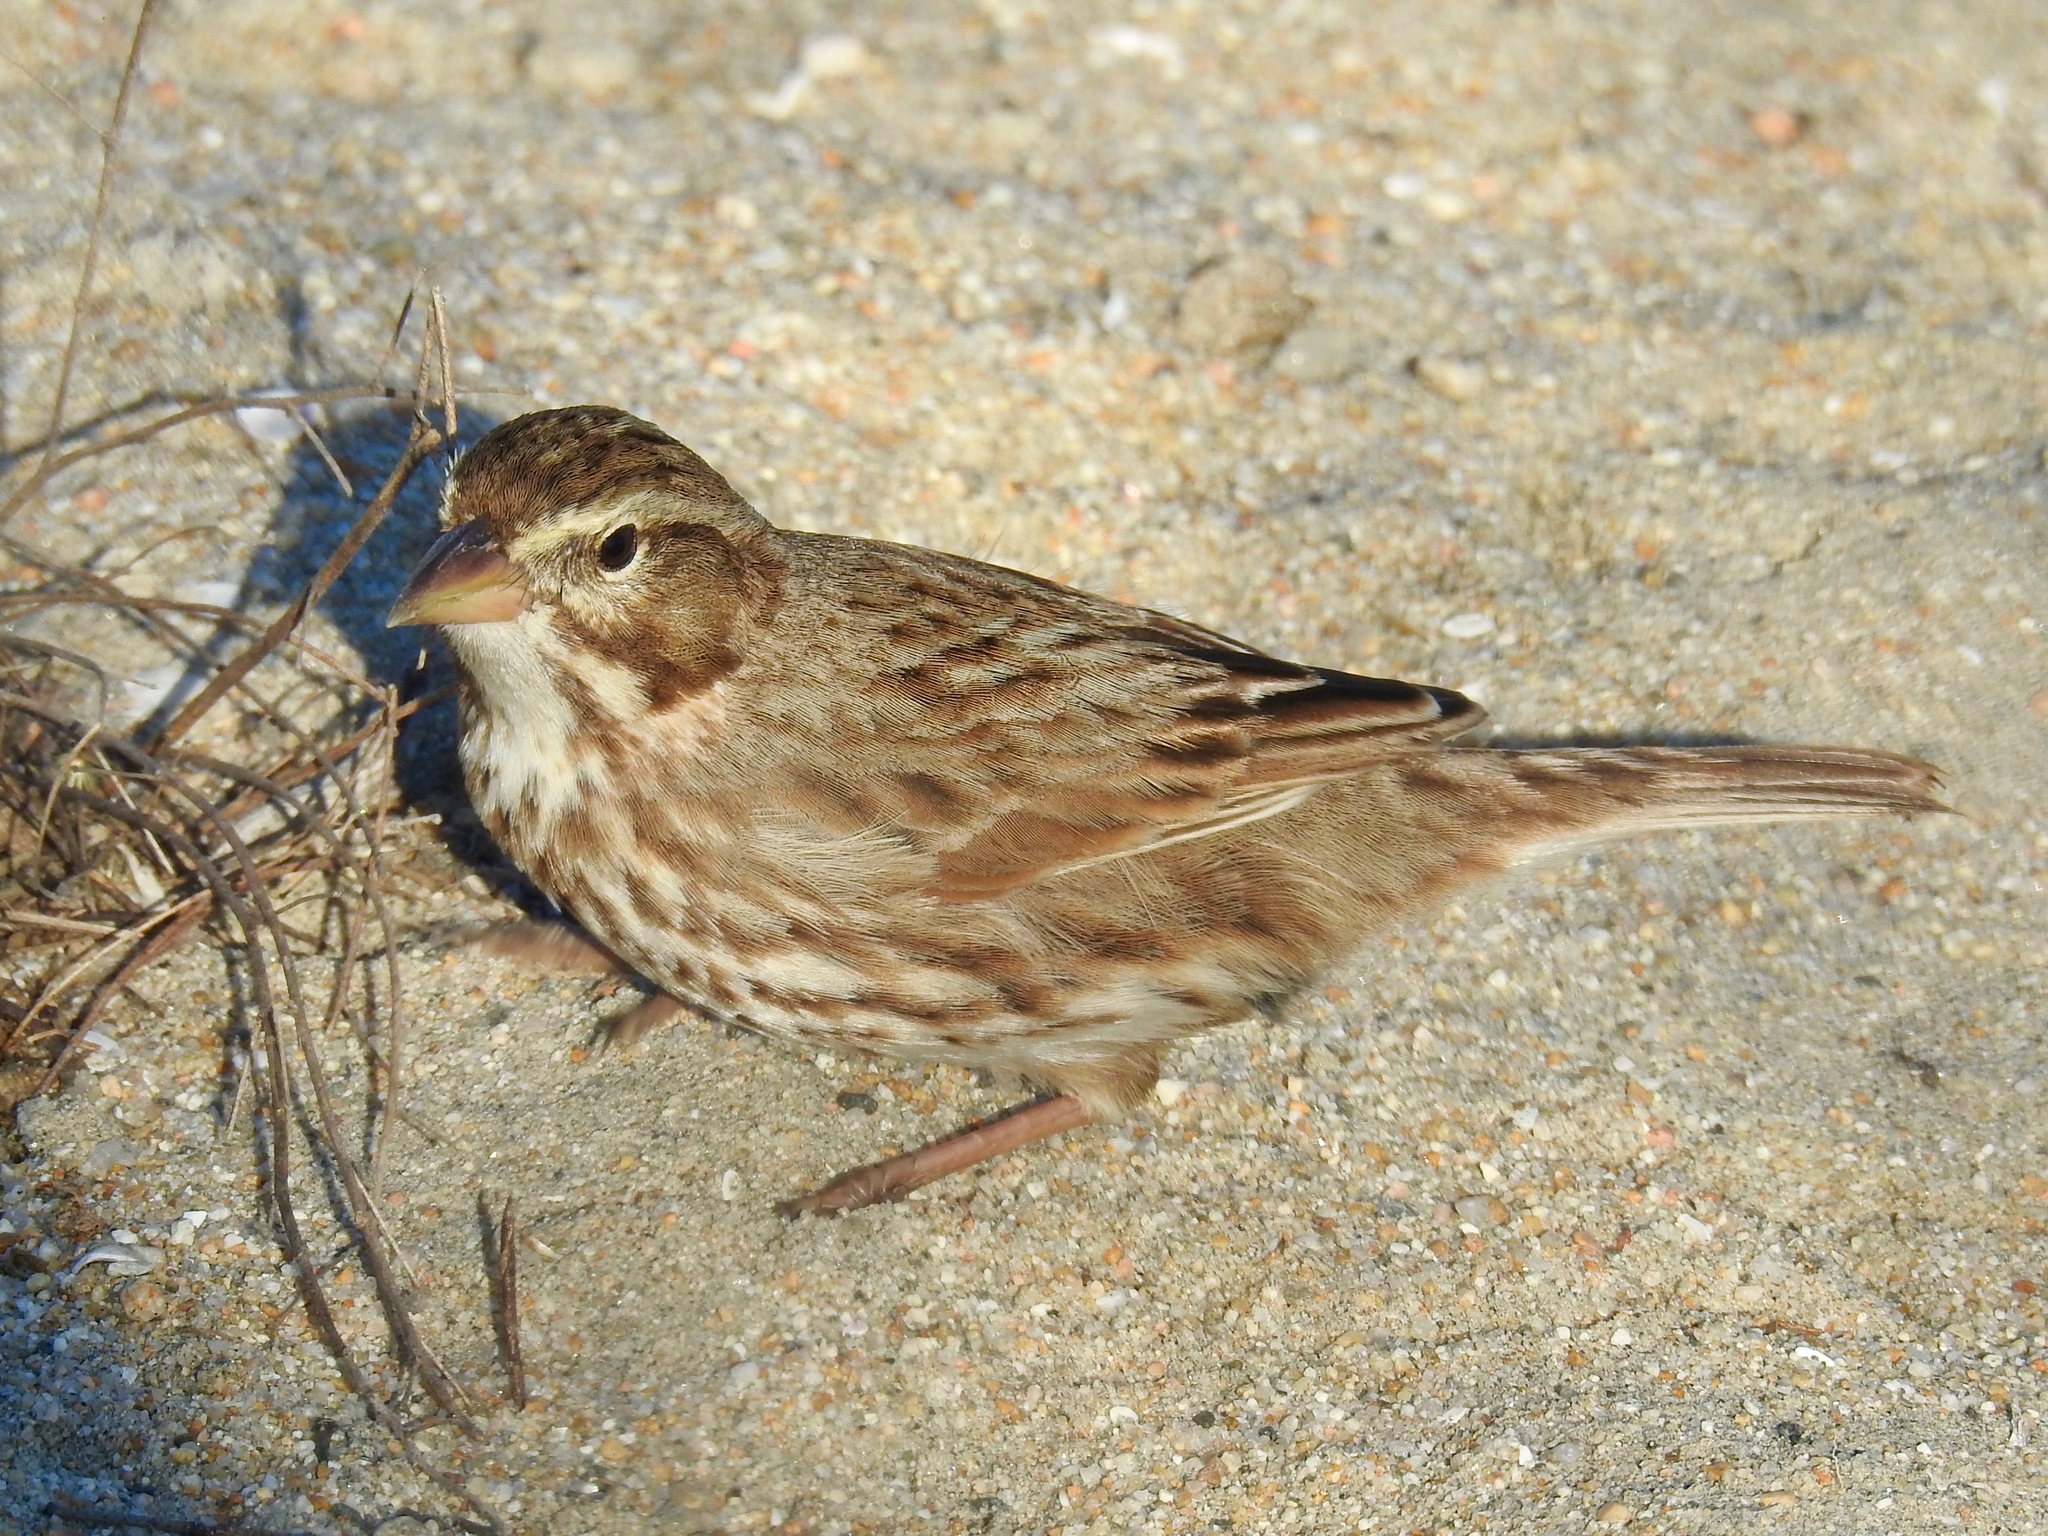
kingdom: Animalia
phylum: Chordata
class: Aves
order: Passeriformes
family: Passerellidae
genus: Passerculus
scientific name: Passerculus sandwichensis
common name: Savannah sparrow
